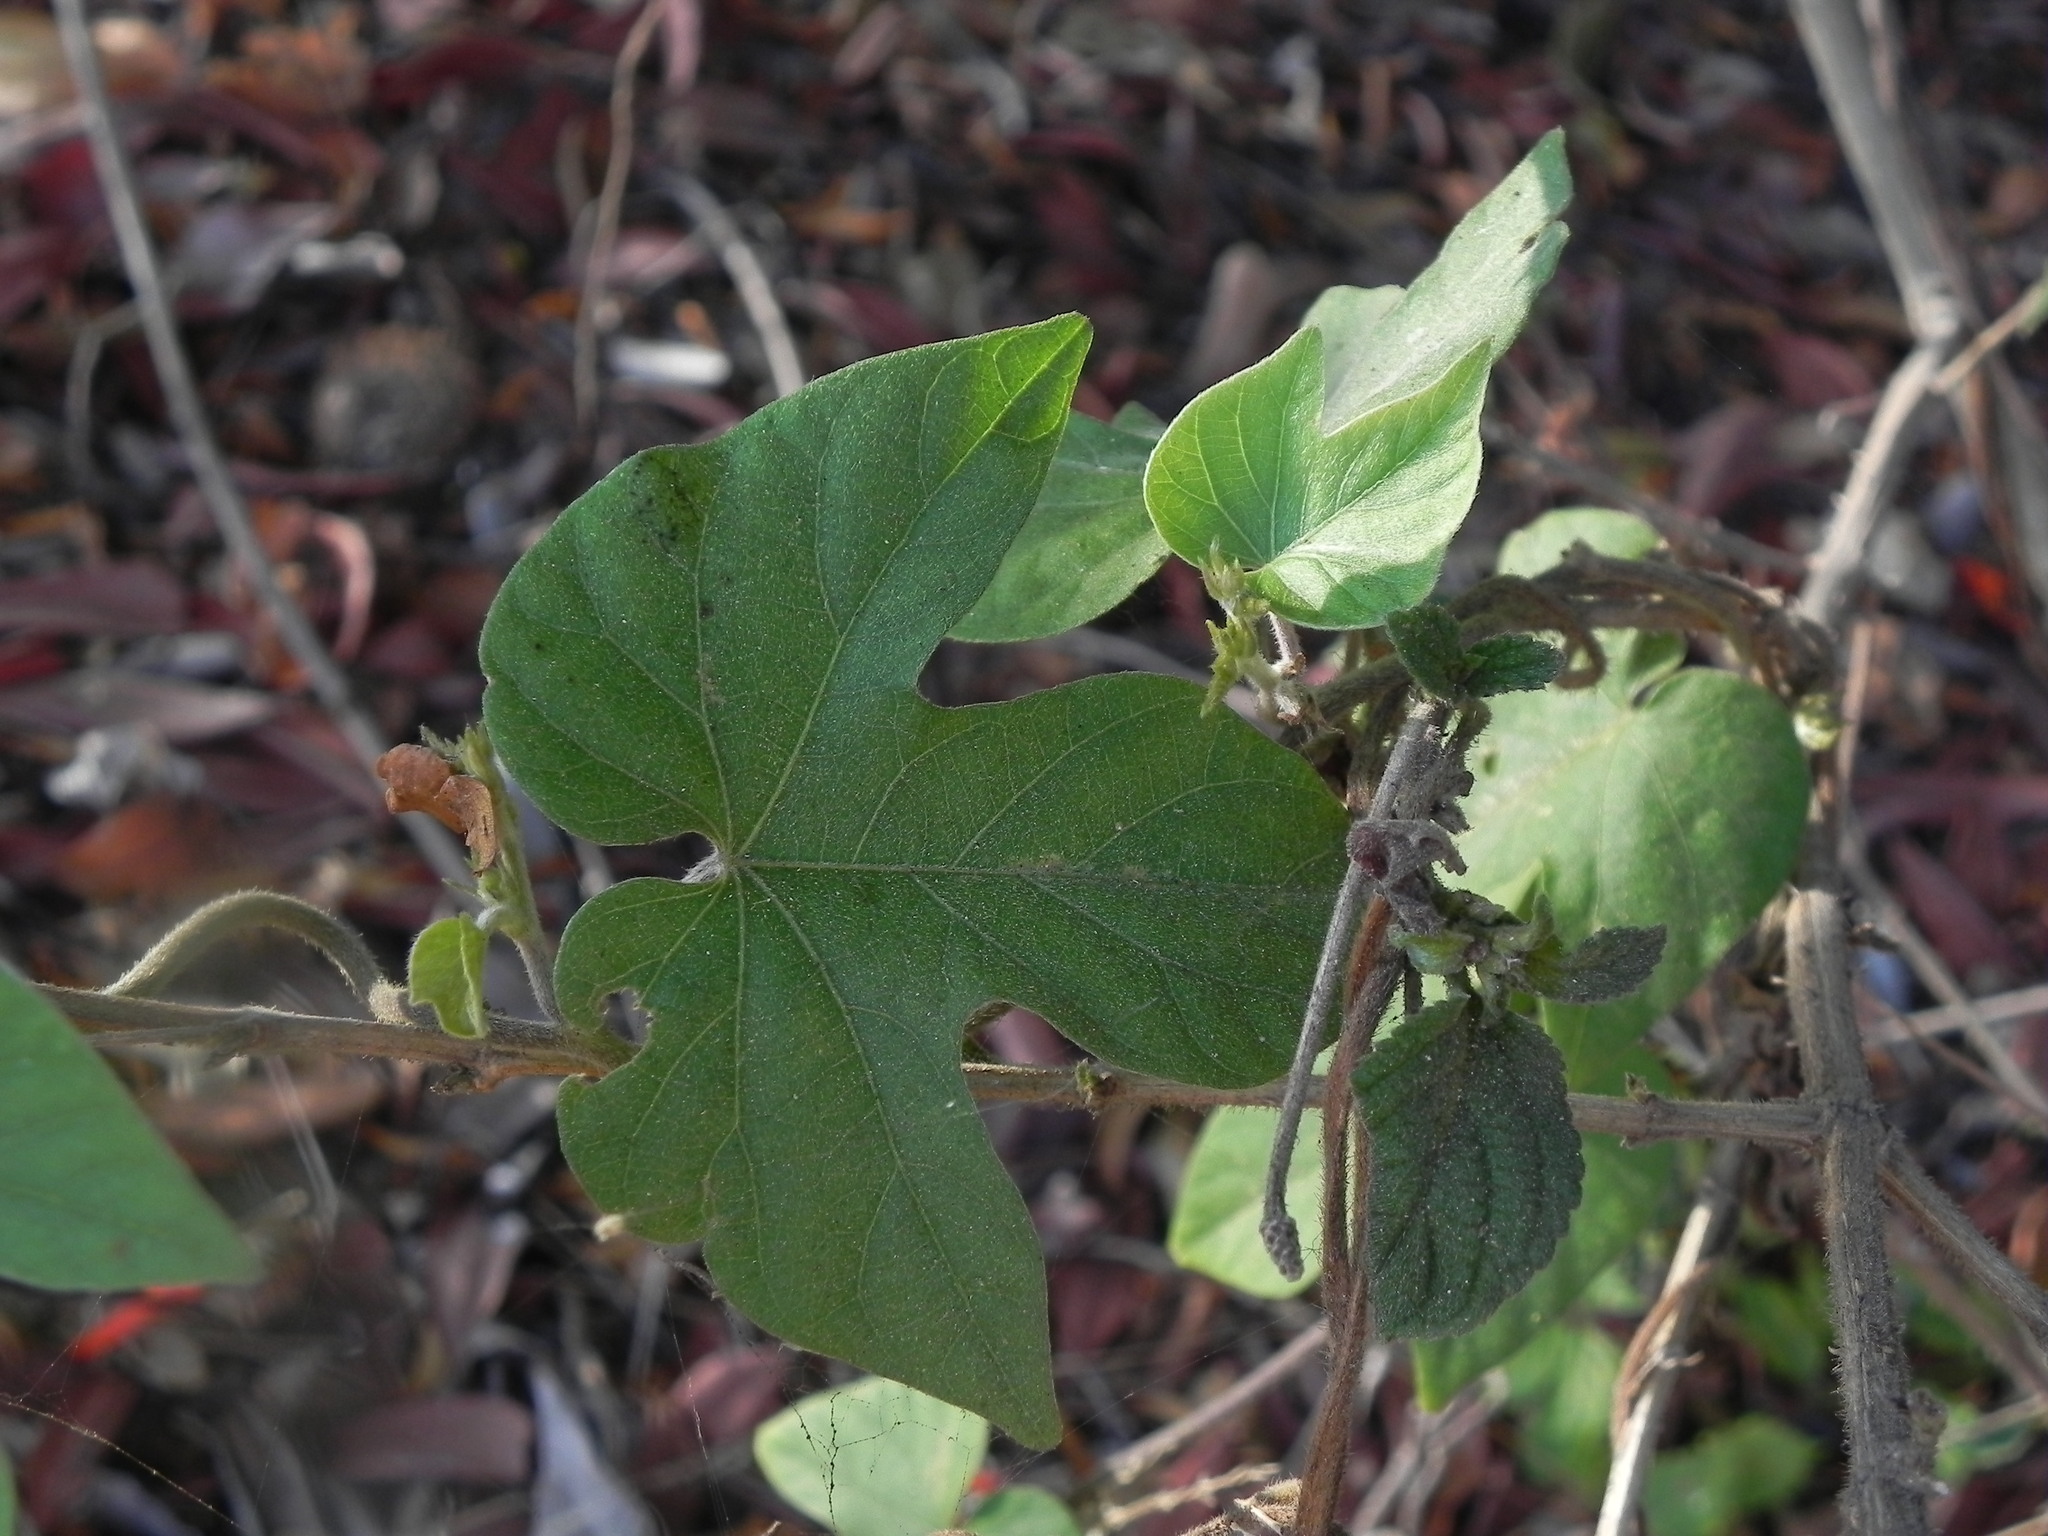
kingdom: Plantae
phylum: Tracheophyta
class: Magnoliopsida
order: Solanales
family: Convolvulaceae
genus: Ipomoea
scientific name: Ipomoea indica
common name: Blue dawnflower
